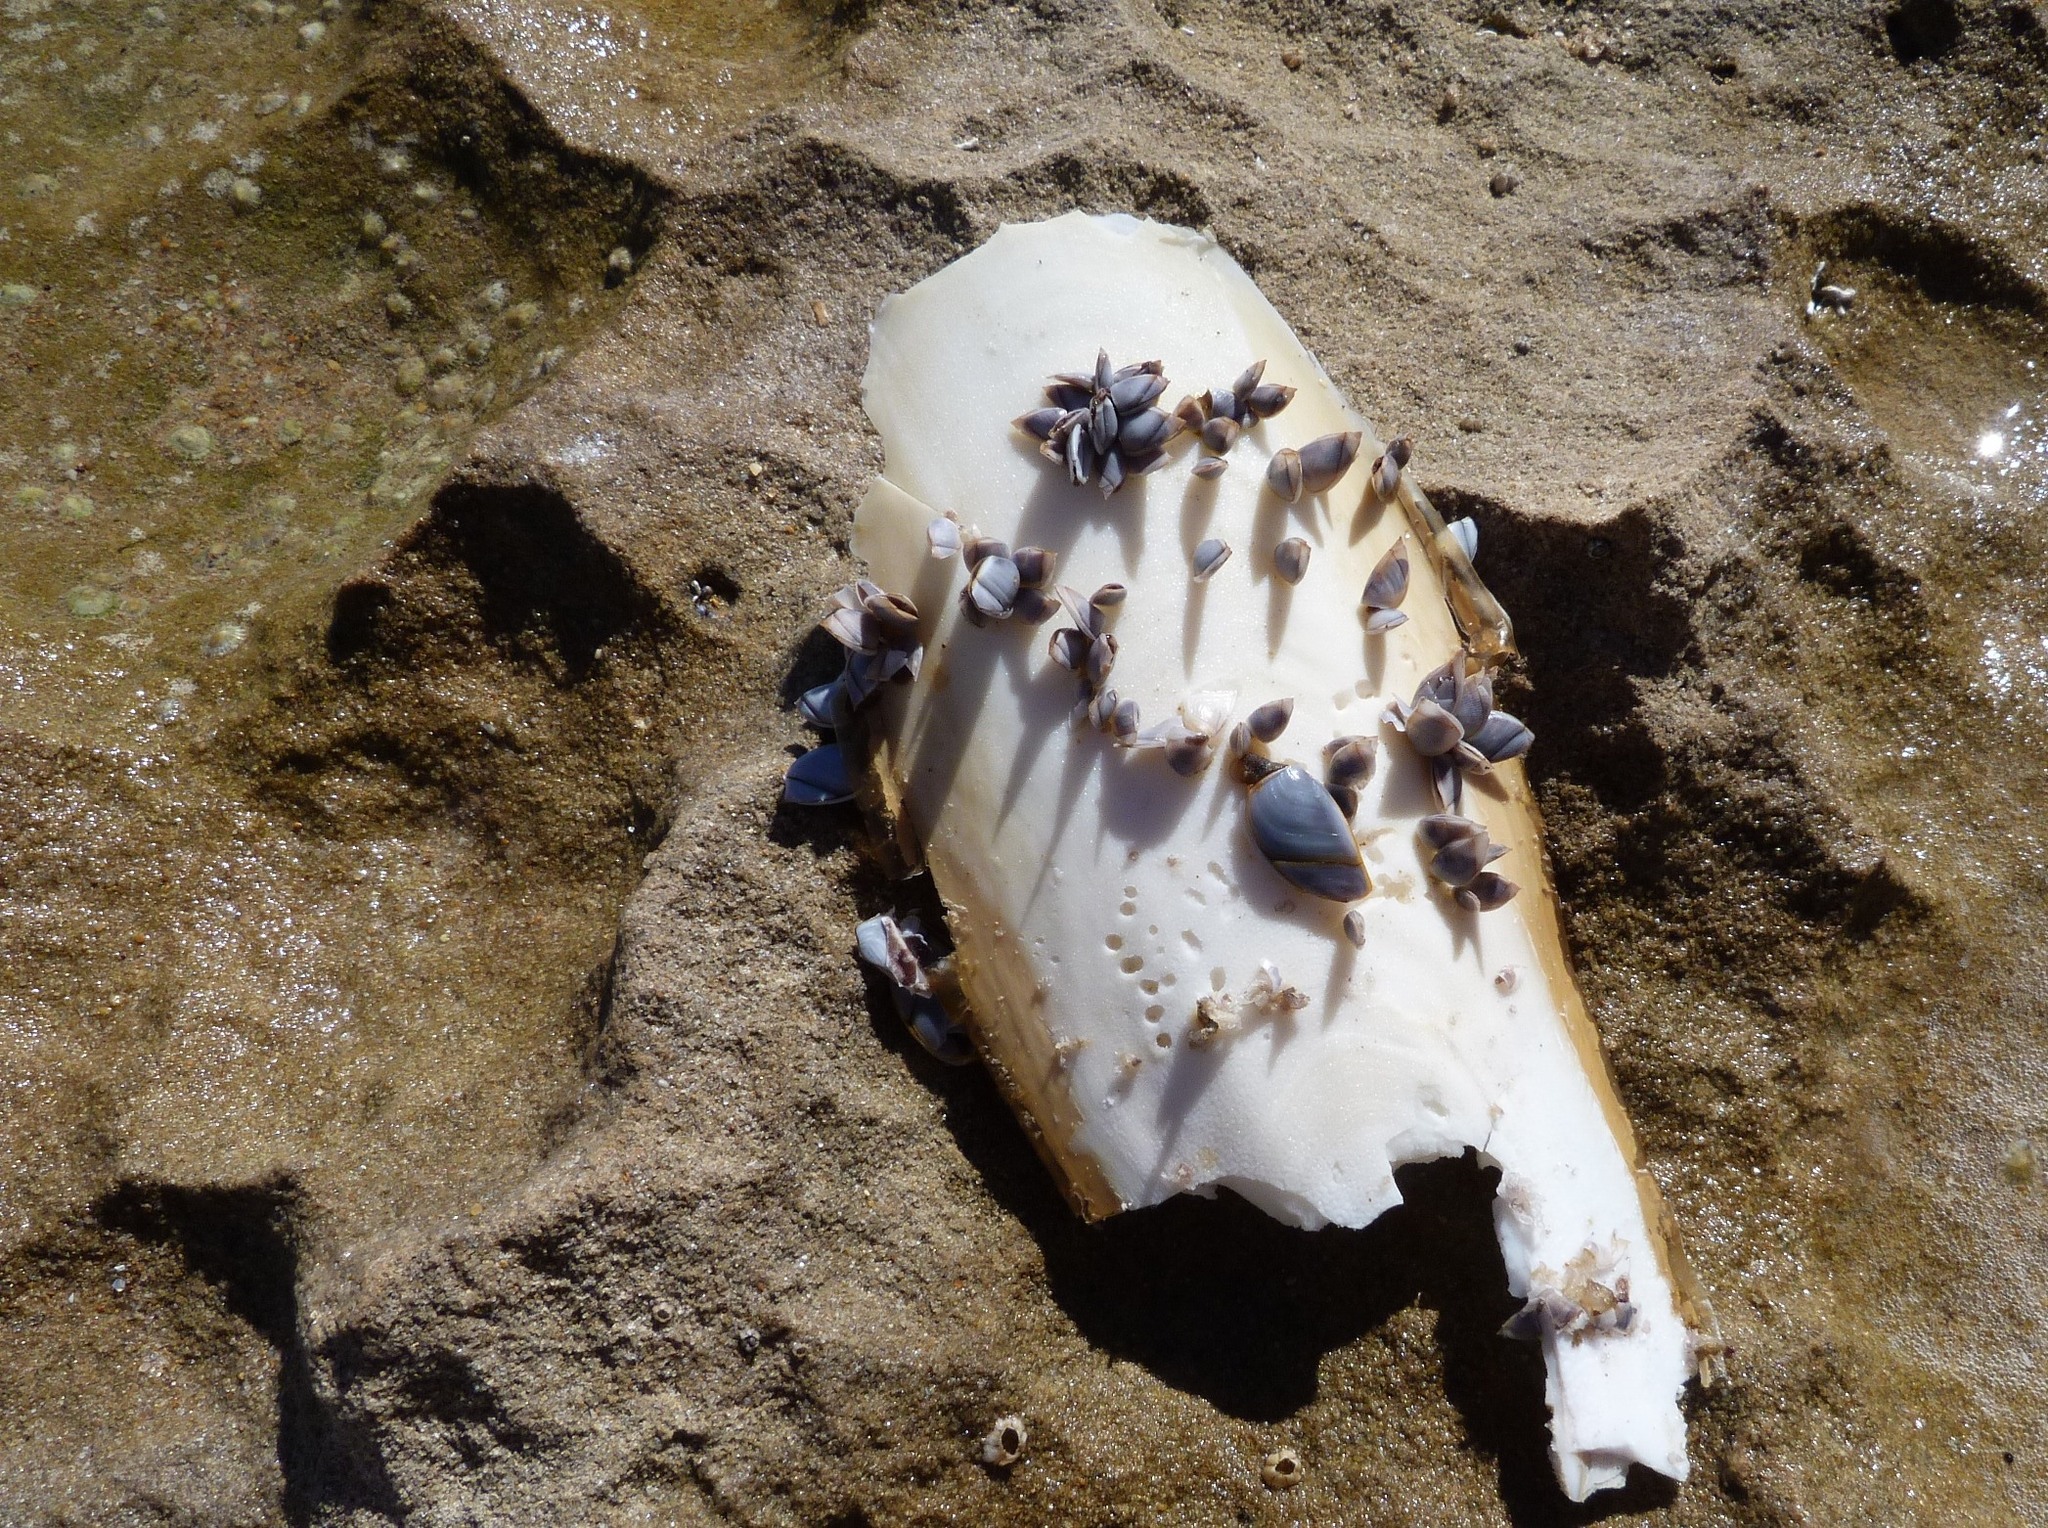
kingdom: Animalia
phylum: Arthropoda
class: Maxillopoda
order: Pedunculata
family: Lepadidae
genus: Lepas
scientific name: Lepas anatifera
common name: Common goose barnacle
